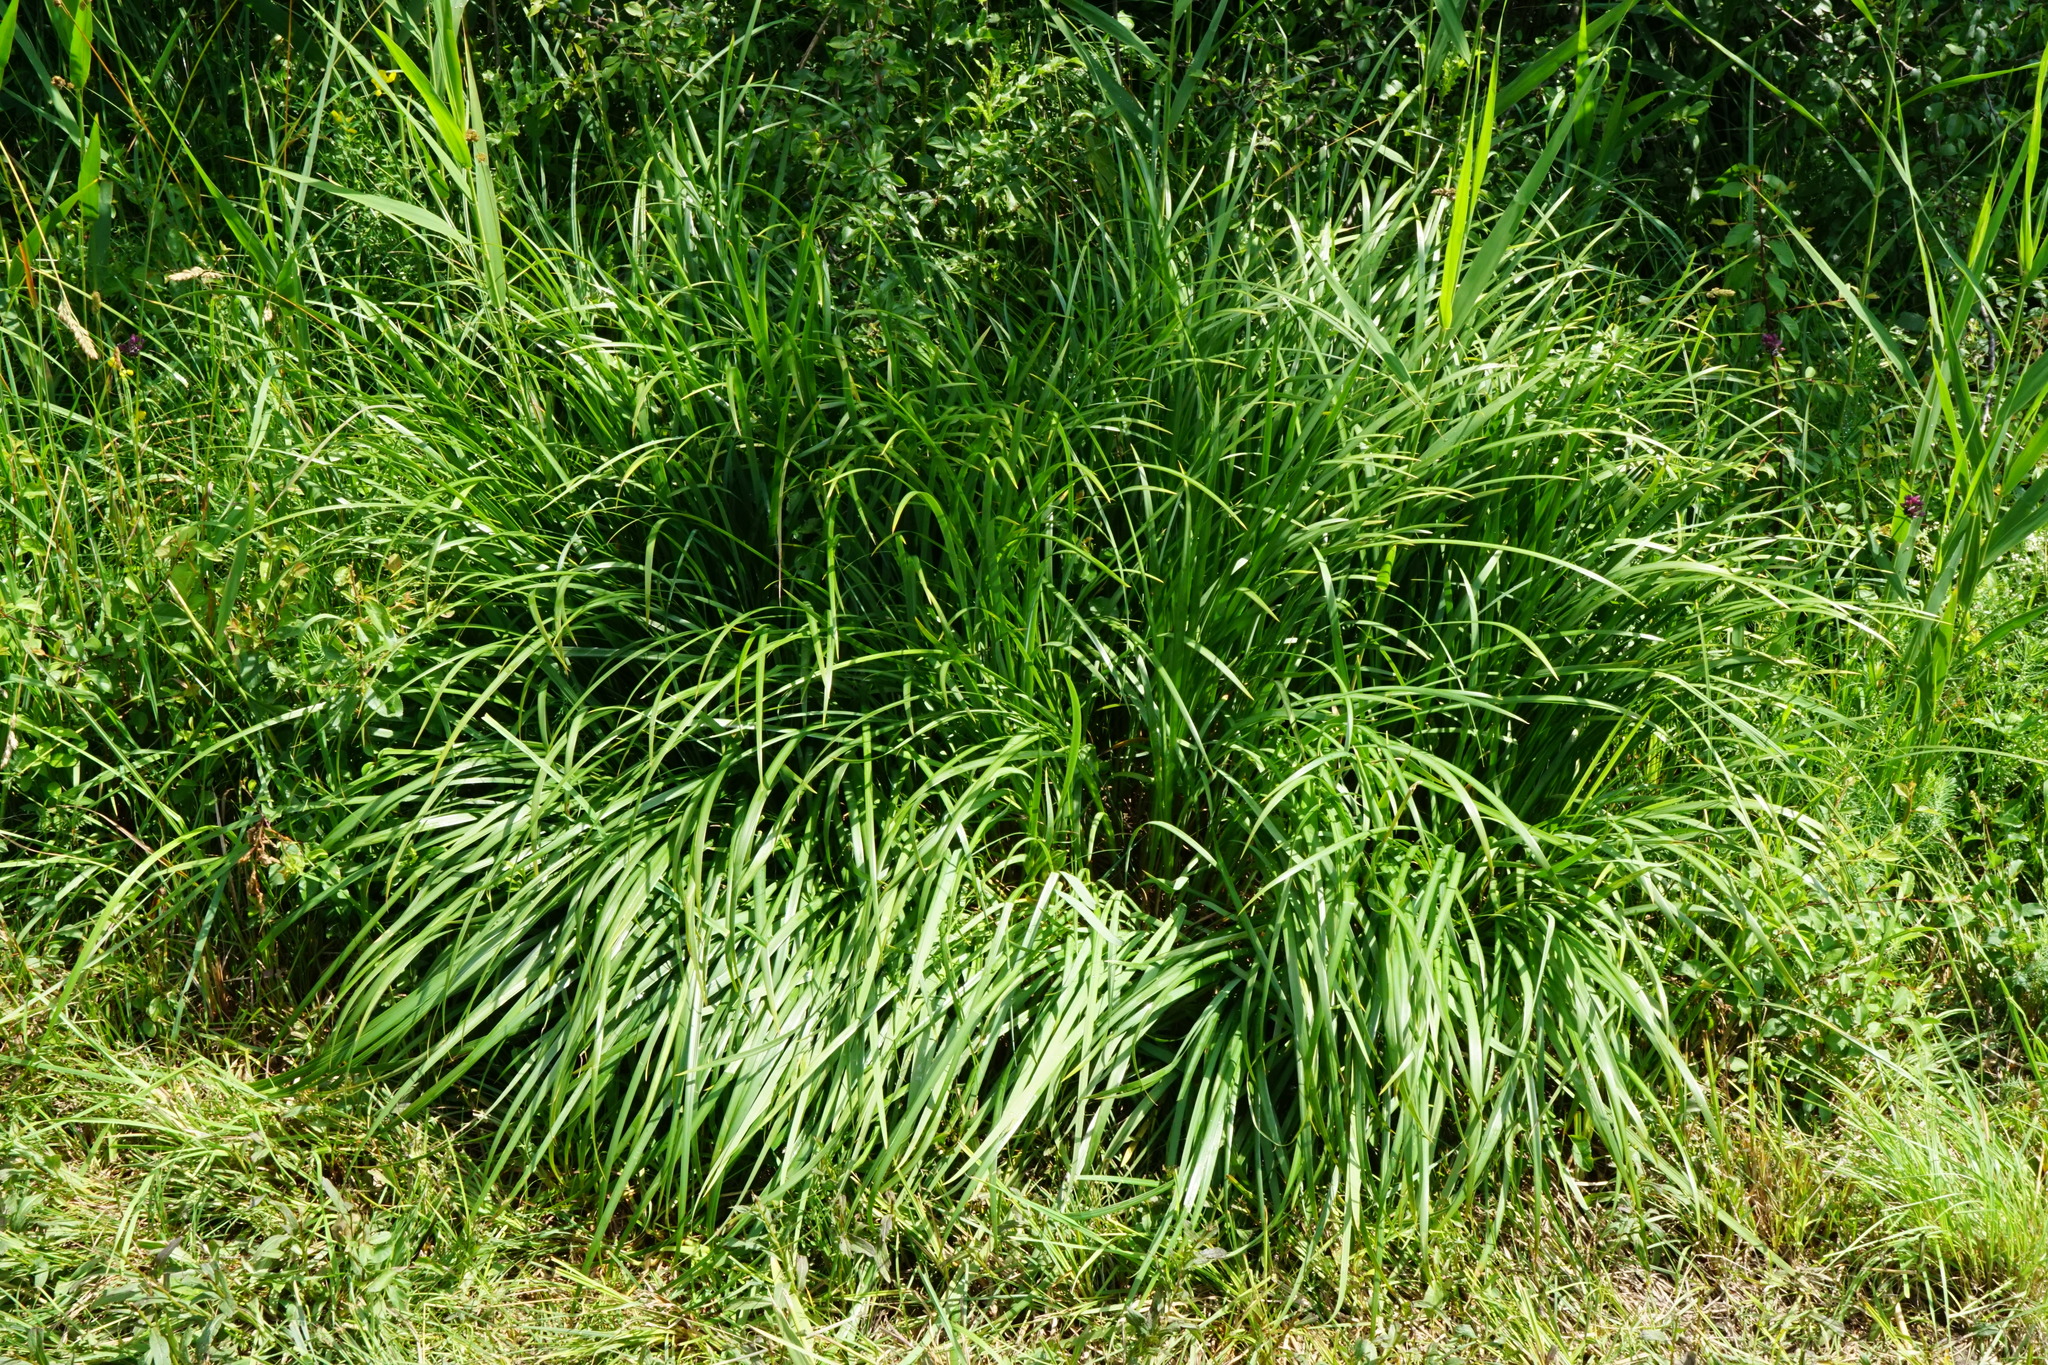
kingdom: Plantae
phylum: Tracheophyta
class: Liliopsida
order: Asparagales
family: Iridaceae
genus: Iris
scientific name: Iris graminea
